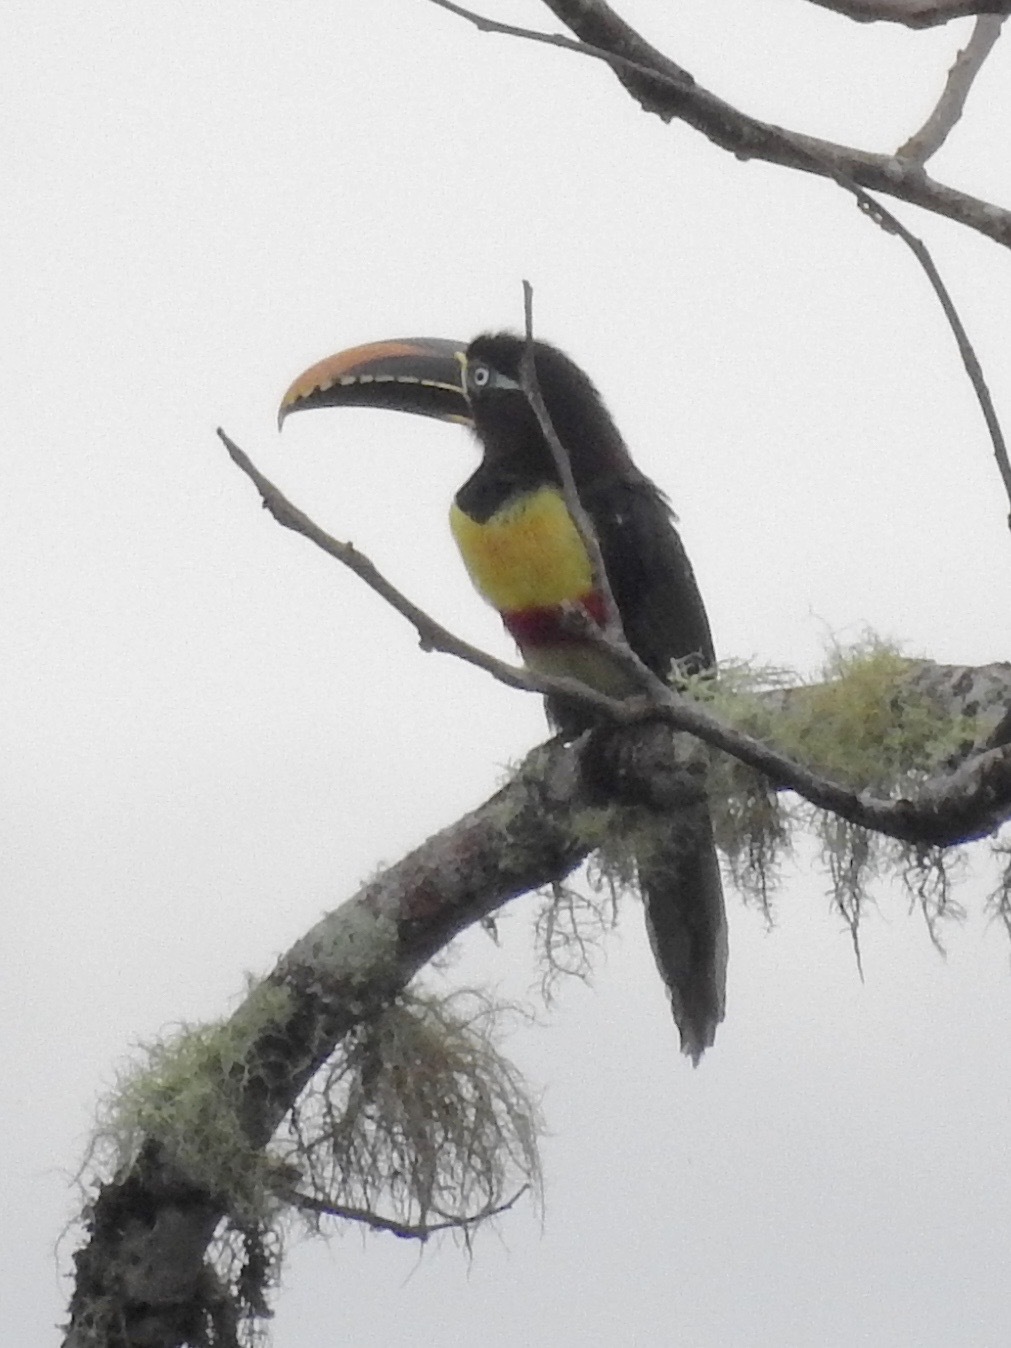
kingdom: Animalia
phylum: Chordata
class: Aves
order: Piciformes
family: Ramphastidae
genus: Pteroglossus
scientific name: Pteroglossus castanotis
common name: Chestnut-eared aracari
